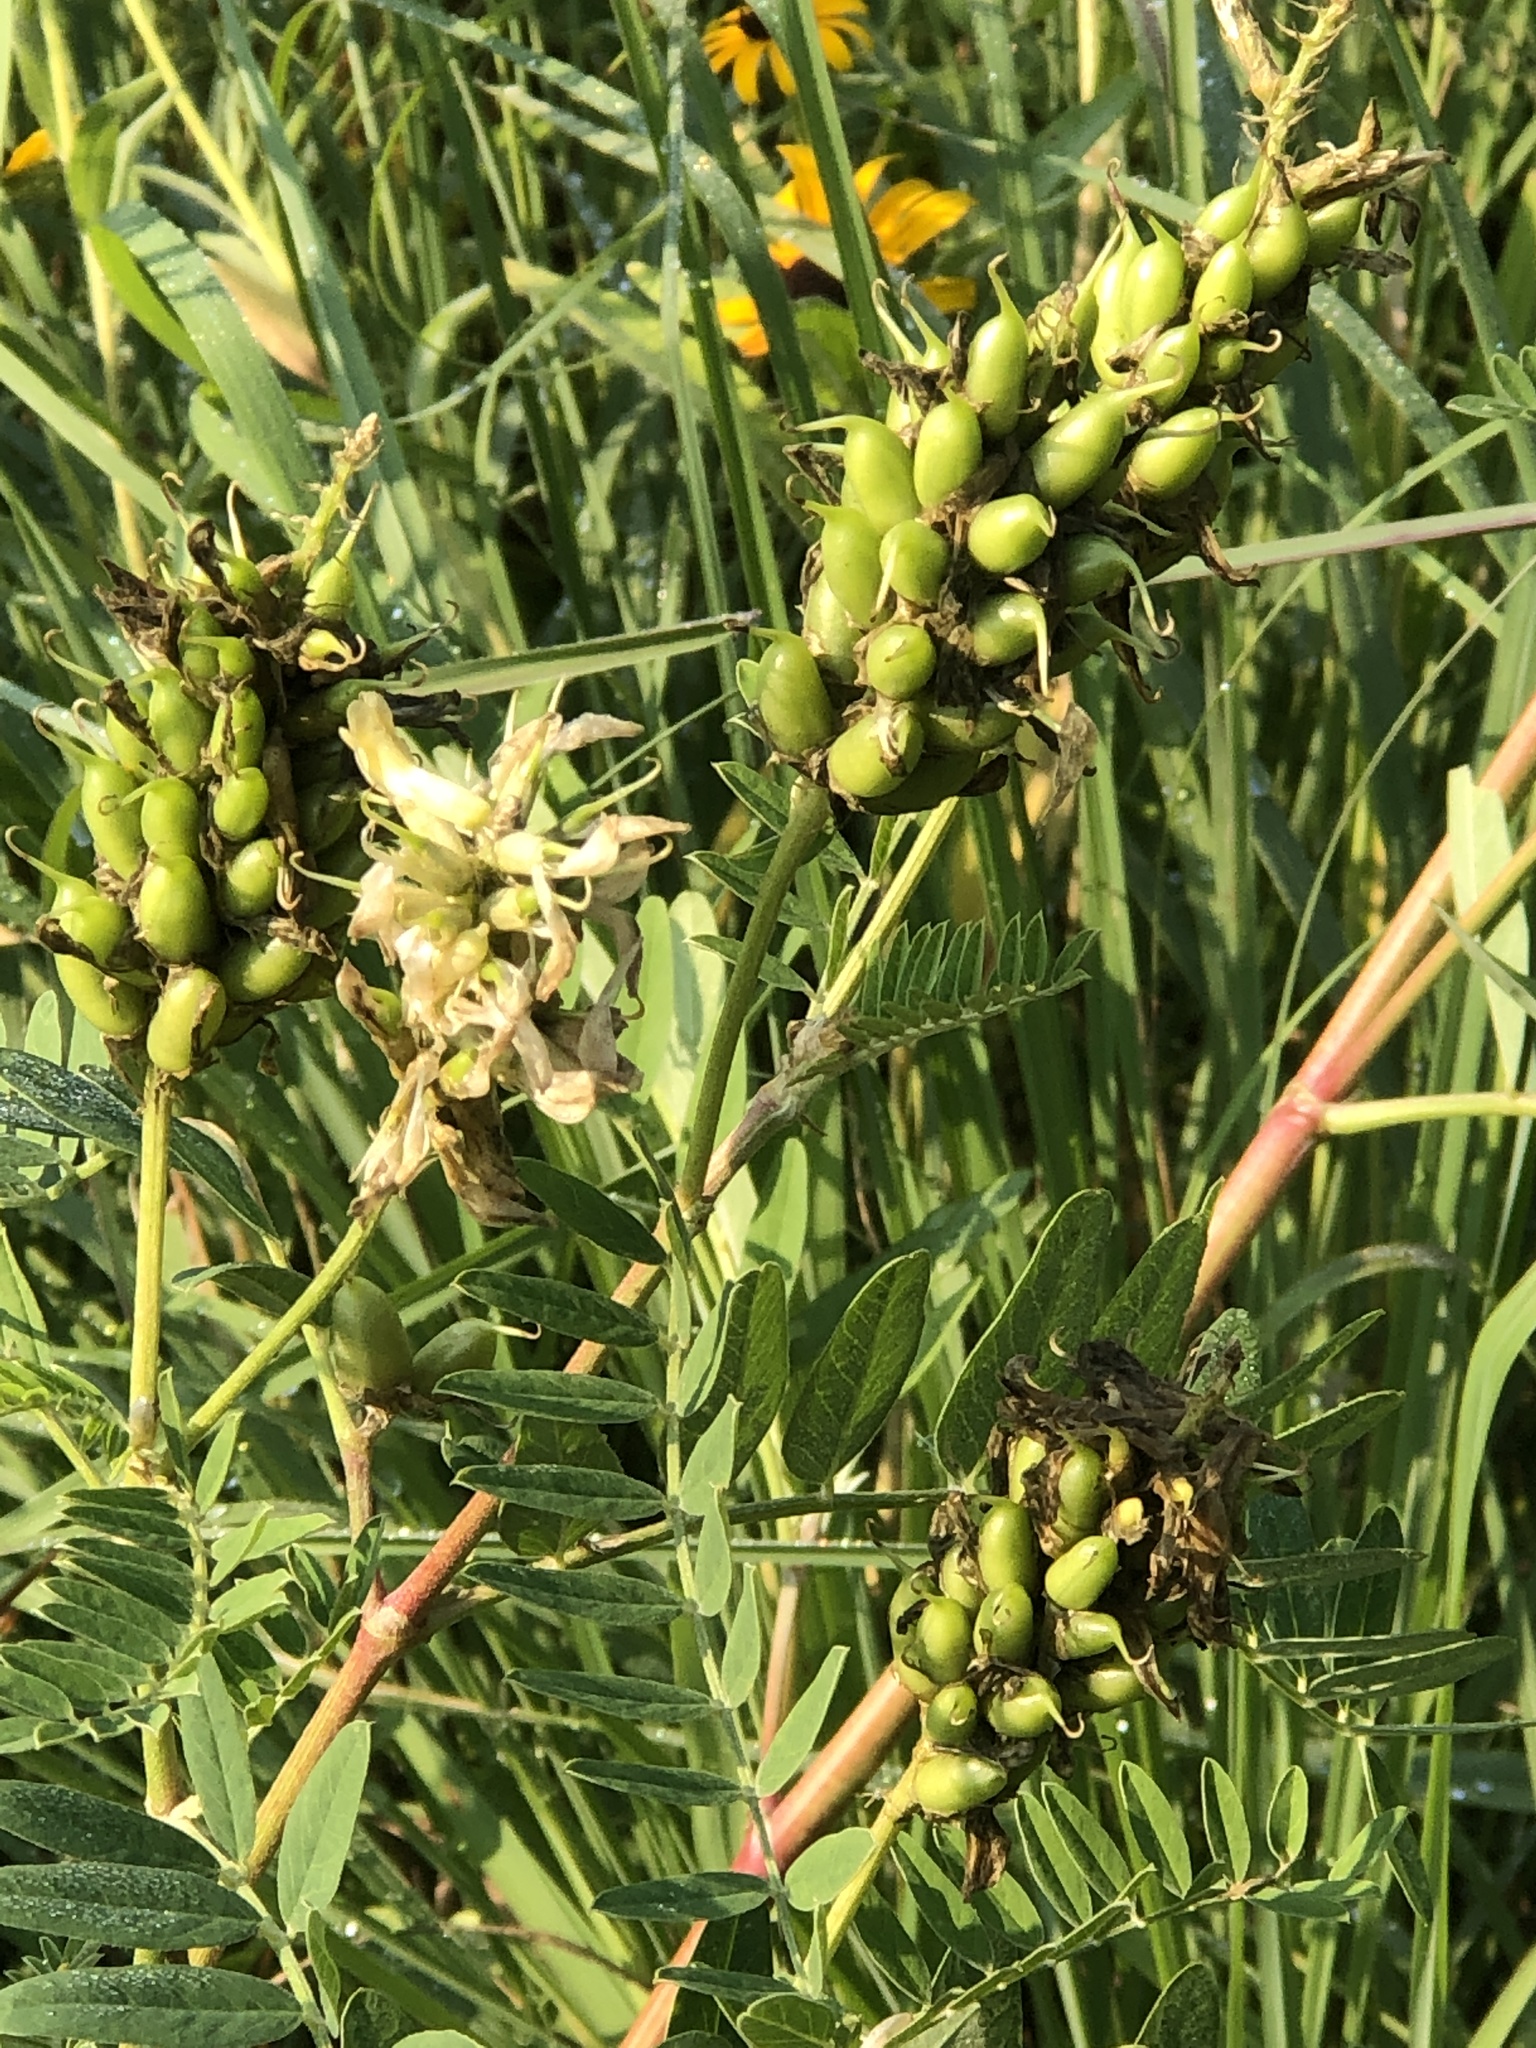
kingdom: Plantae
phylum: Tracheophyta
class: Magnoliopsida
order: Fabales
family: Fabaceae
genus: Astragalus
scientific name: Astragalus canadensis
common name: Canada milk-vetch
